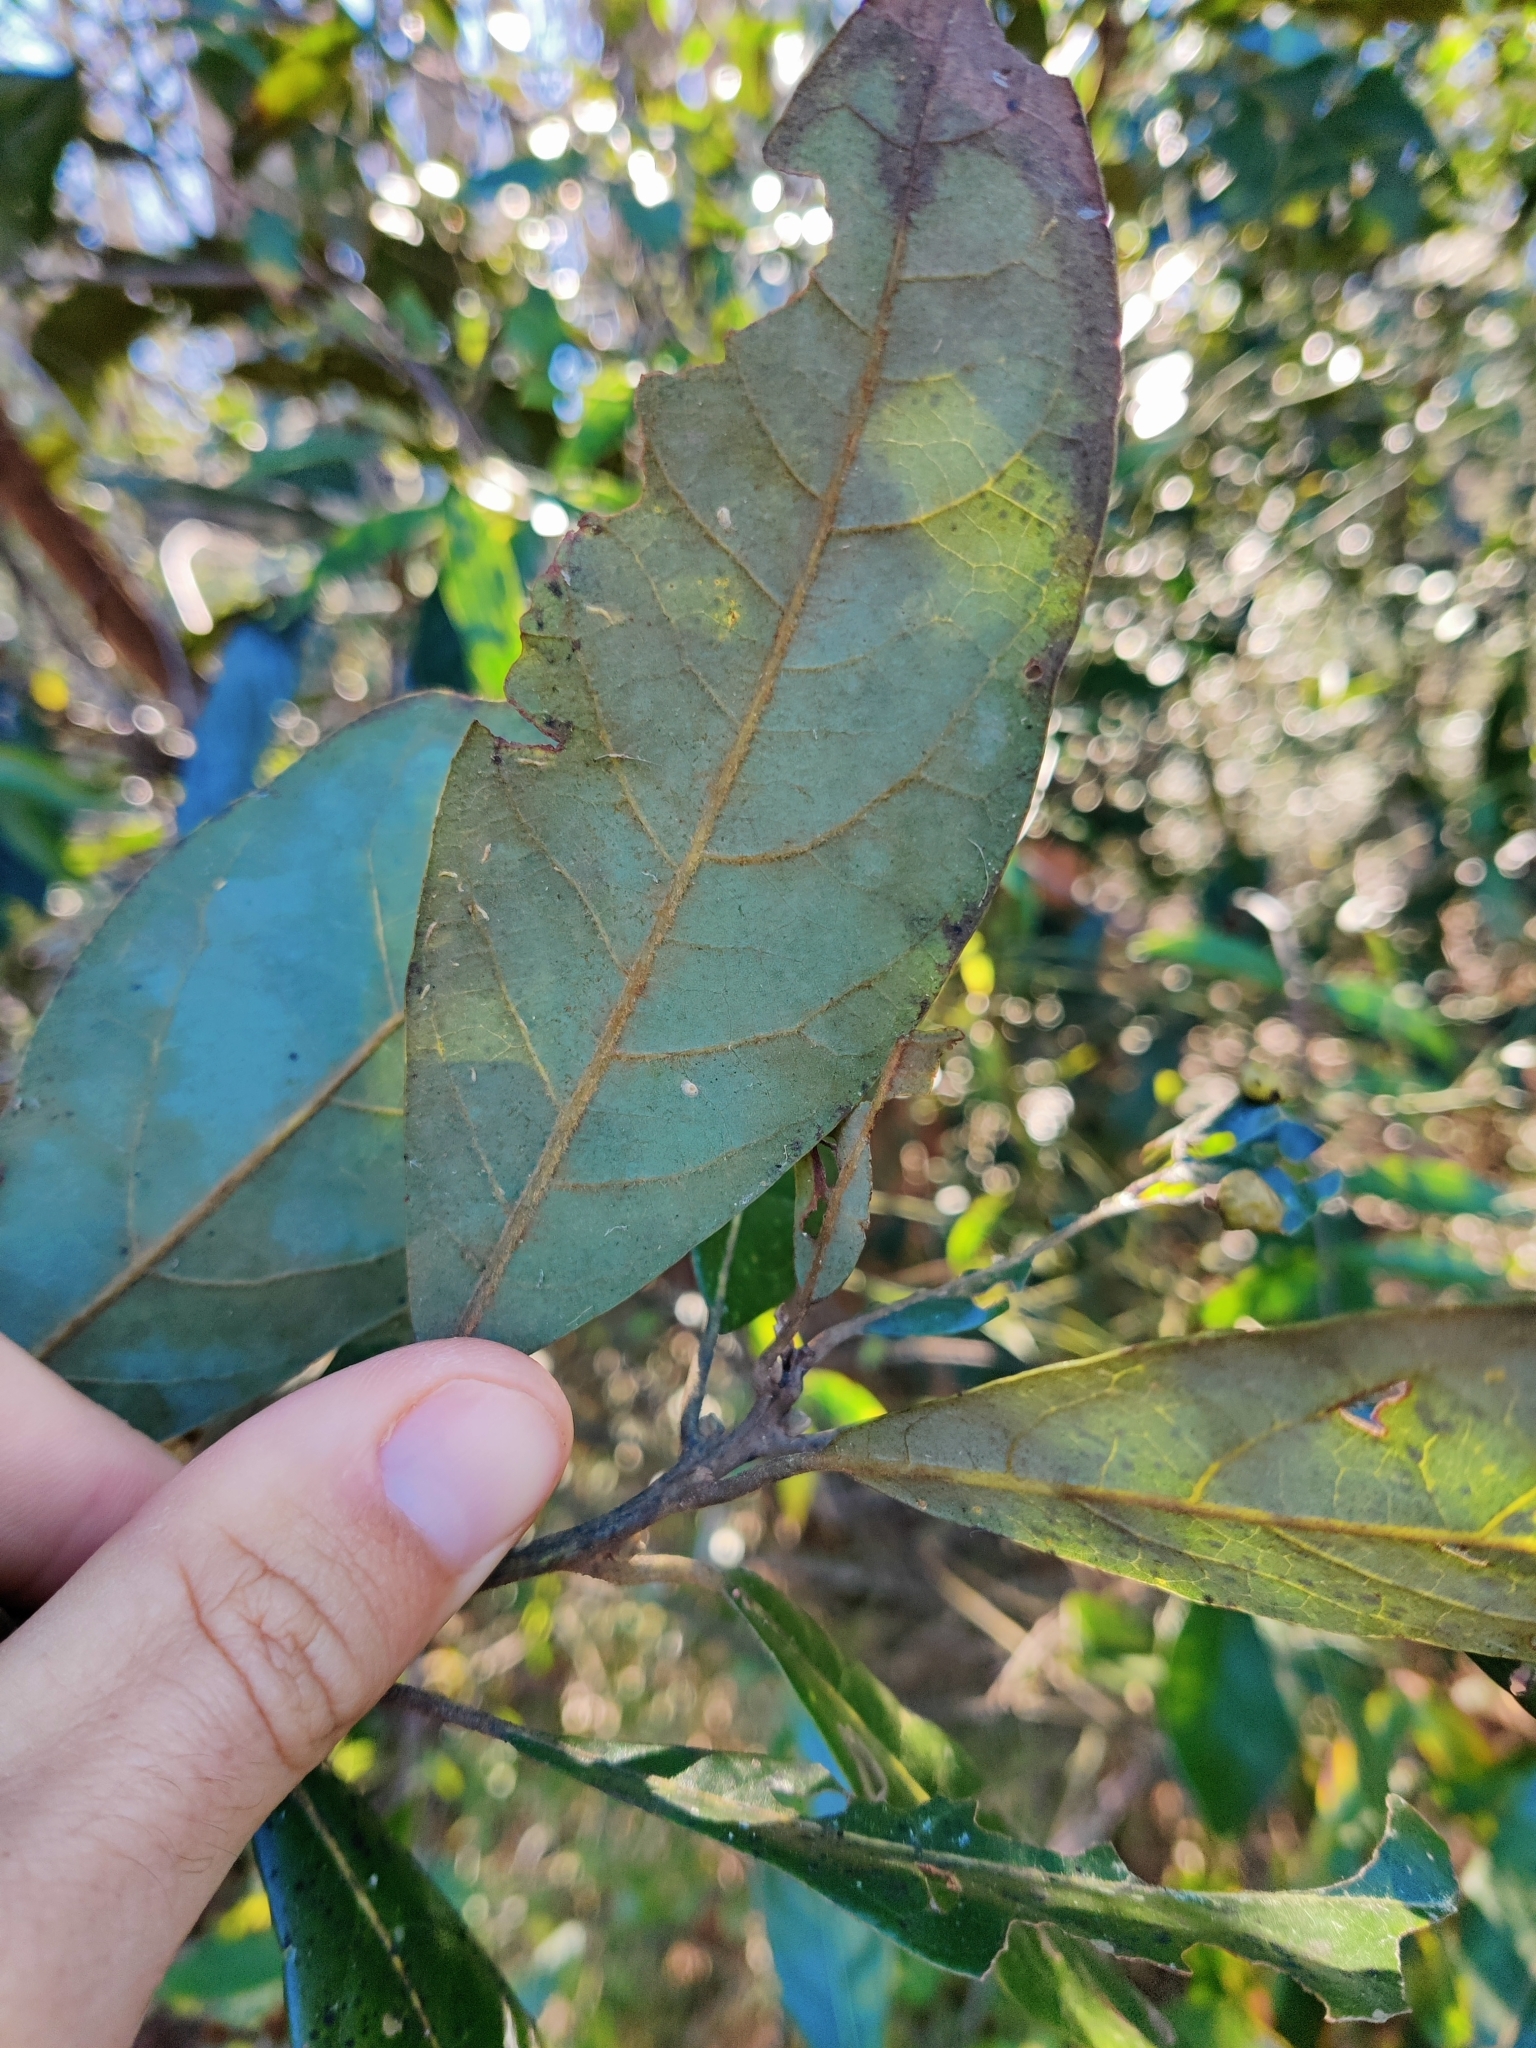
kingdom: Plantae
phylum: Tracheophyta
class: Magnoliopsida
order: Laurales
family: Lauraceae
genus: Persea
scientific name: Persea palustris
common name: Swampbay
